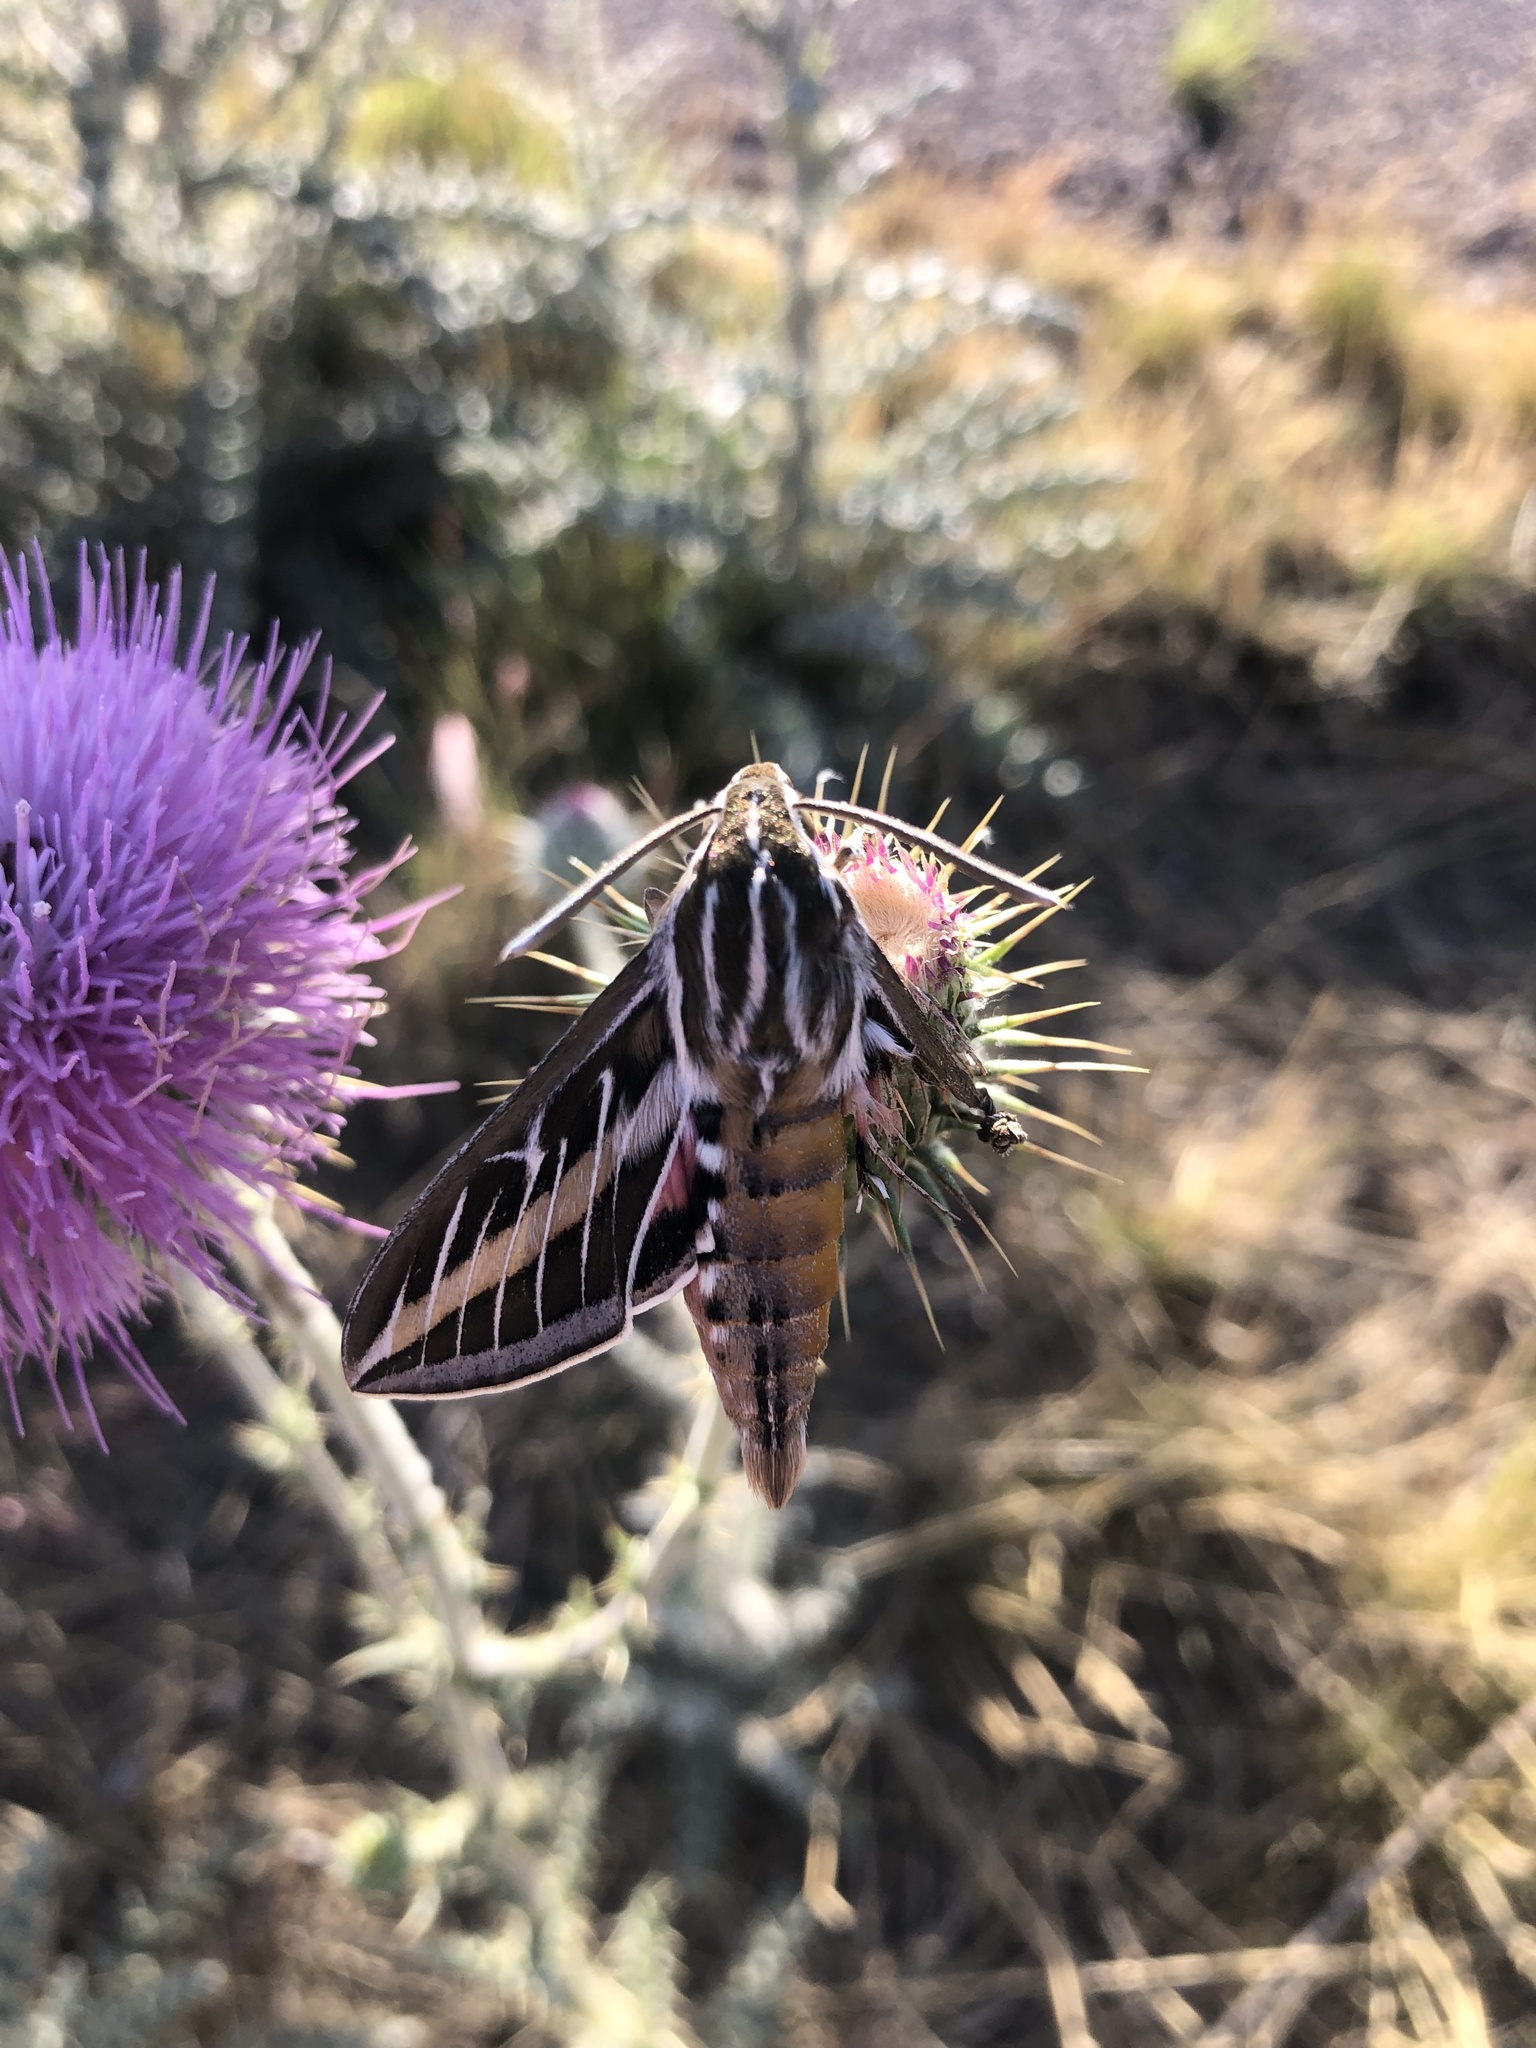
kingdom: Animalia
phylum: Arthropoda
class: Insecta
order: Lepidoptera
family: Sphingidae
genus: Hyles
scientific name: Hyles lineata
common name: White-lined sphinx
